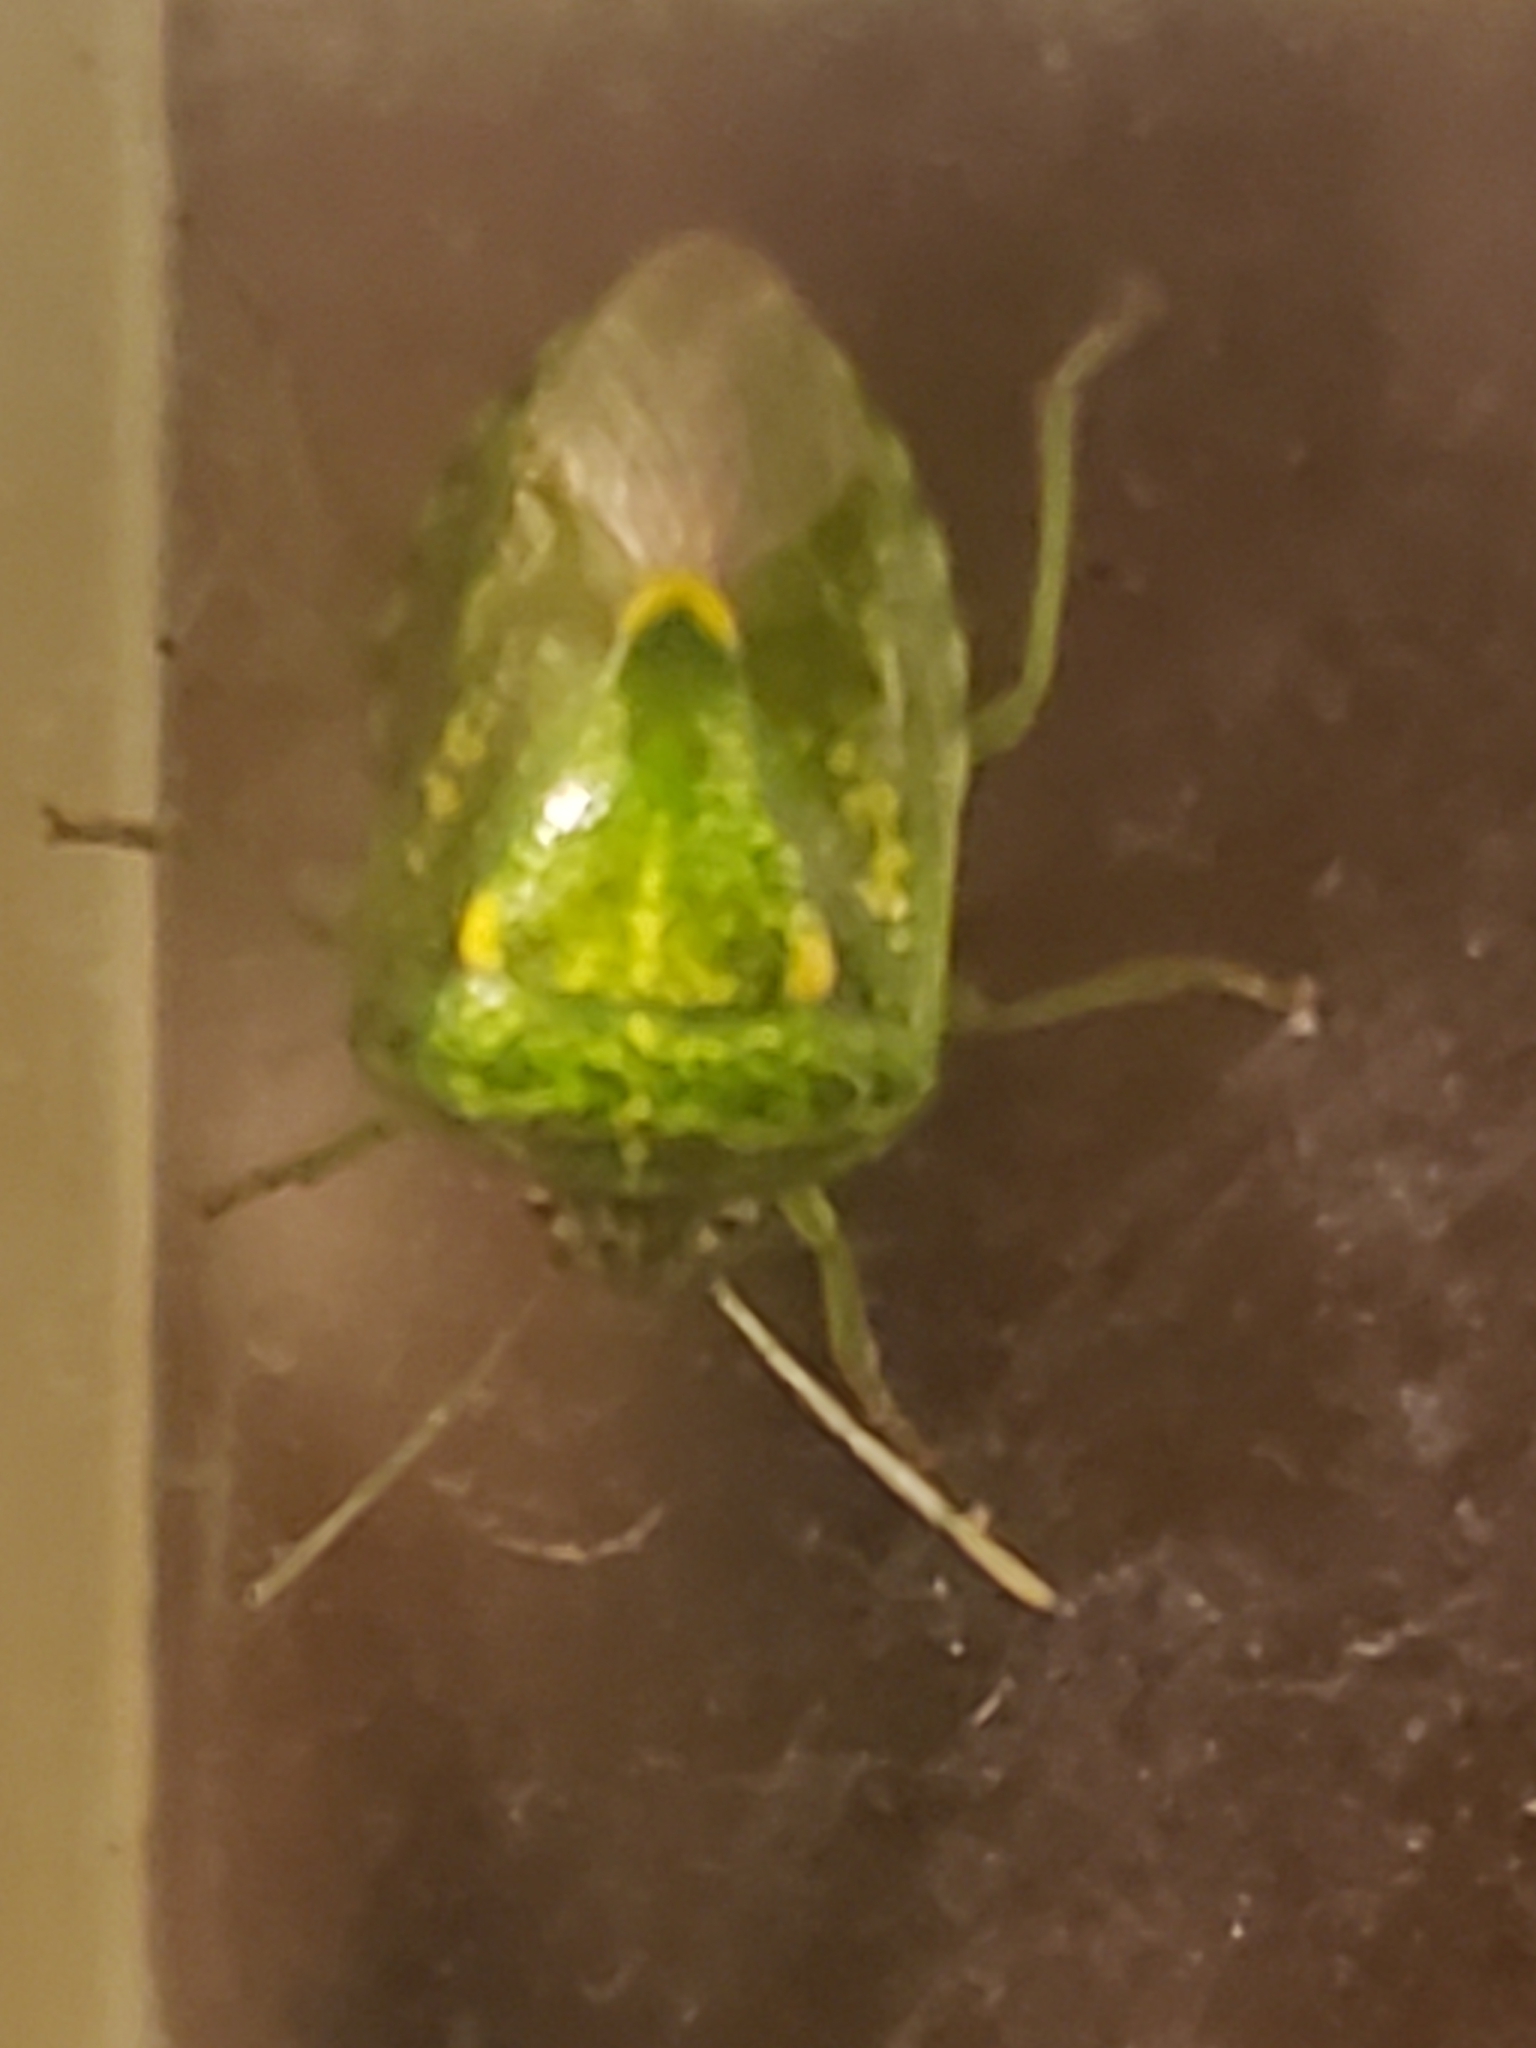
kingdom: Animalia
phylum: Arthropoda
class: Insecta
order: Hemiptera
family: Pentatomidae
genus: Banasa
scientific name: Banasa euchlora
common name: Cedar berry bug
